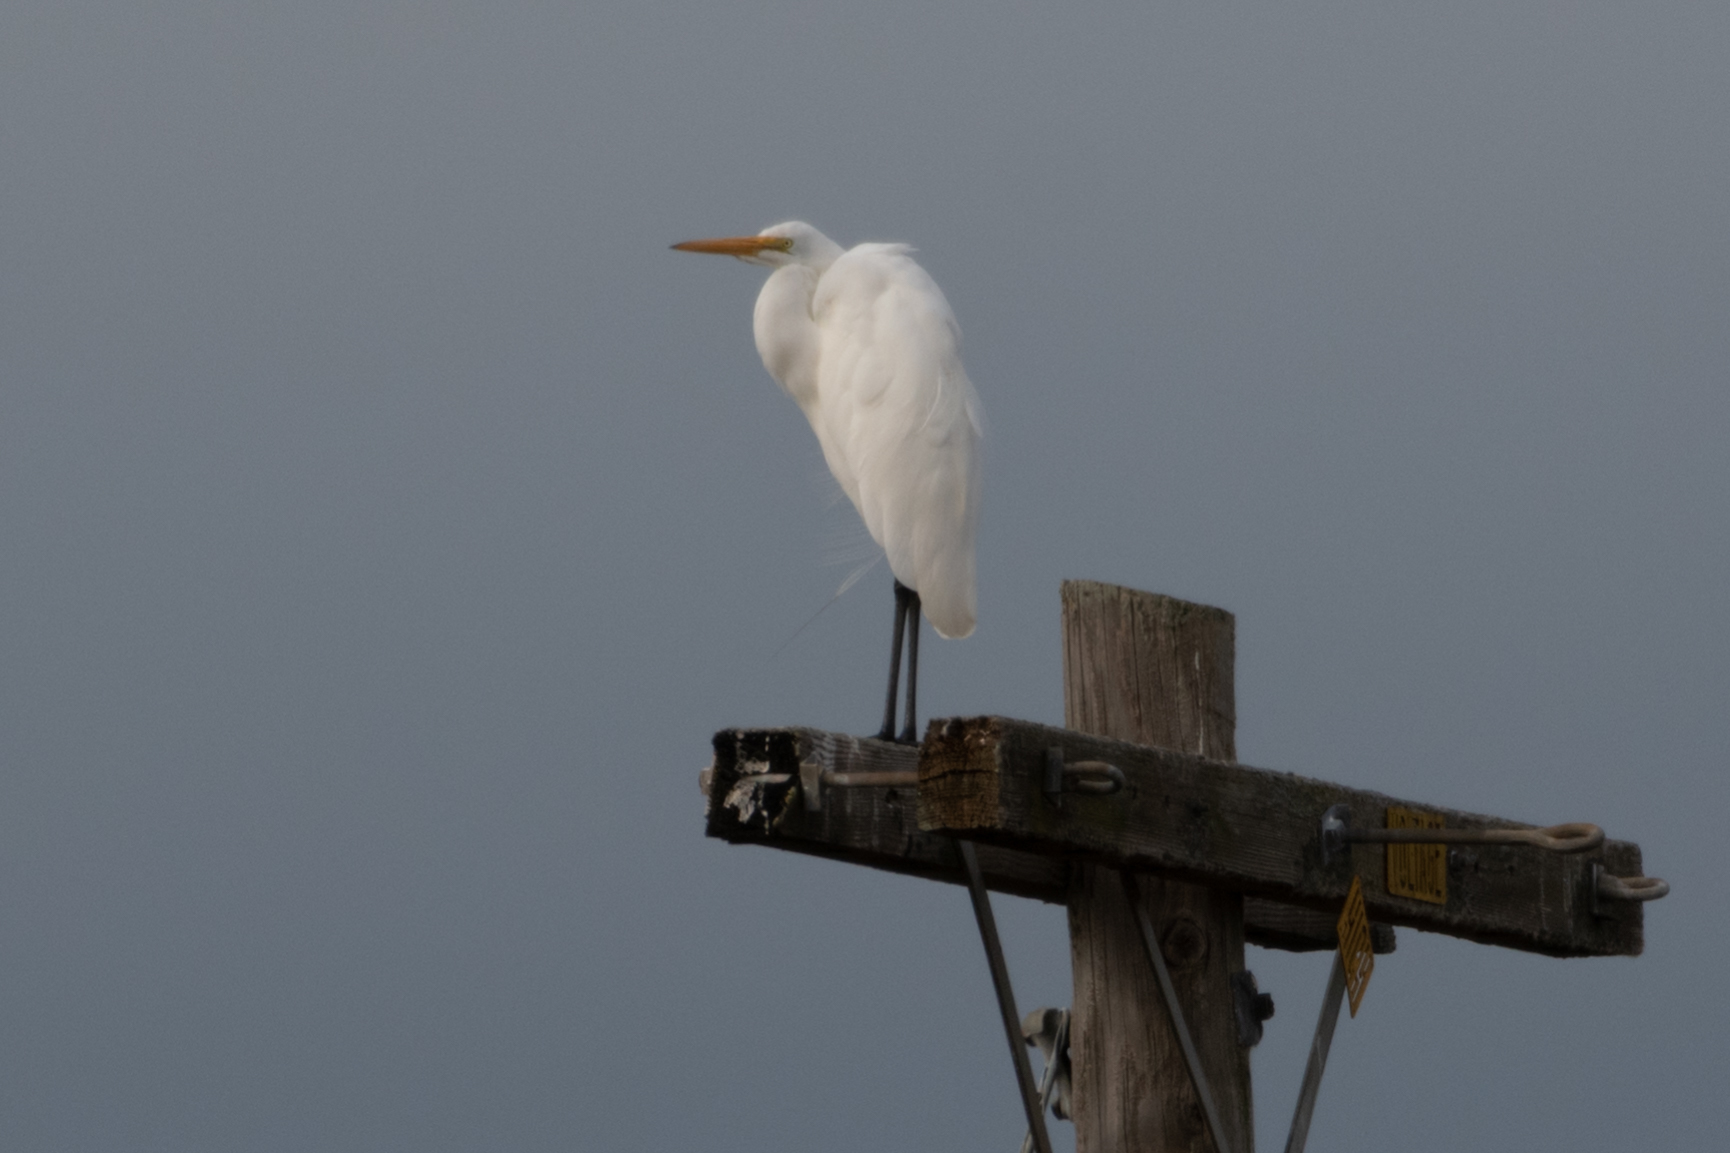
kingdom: Animalia
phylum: Chordata
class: Aves
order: Pelecaniformes
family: Ardeidae
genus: Ardea
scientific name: Ardea alba
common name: Great egret
